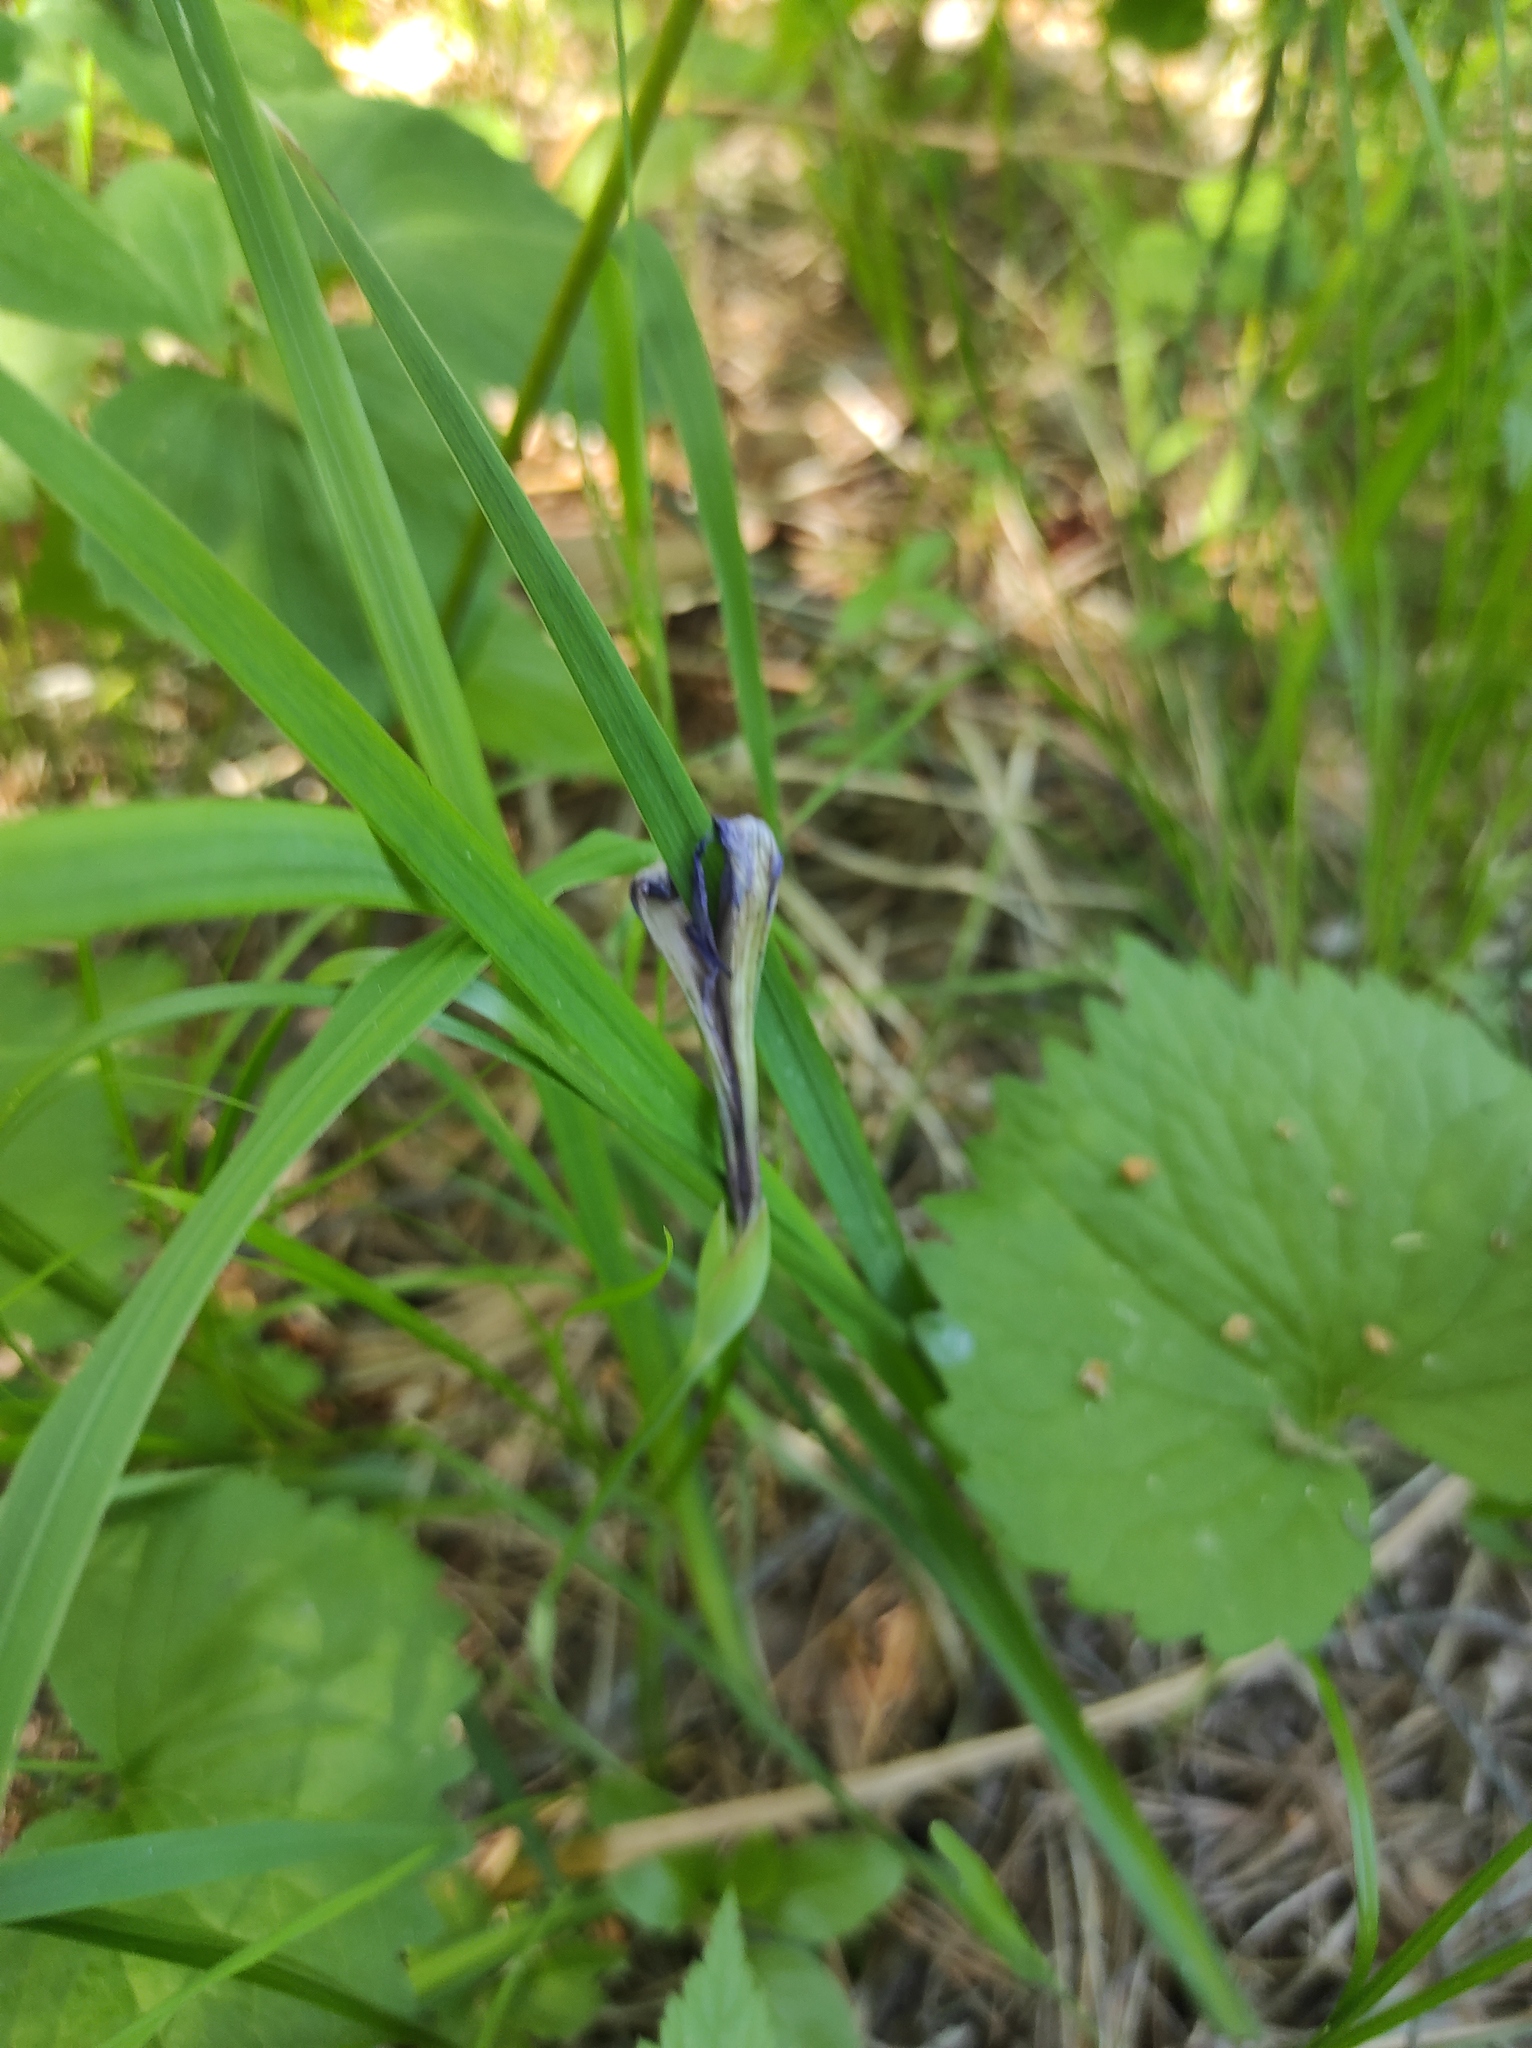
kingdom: Plantae
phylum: Tracheophyta
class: Liliopsida
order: Asparagales
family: Iridaceae
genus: Iris
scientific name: Iris ruthenica
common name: Purple-bract iris
